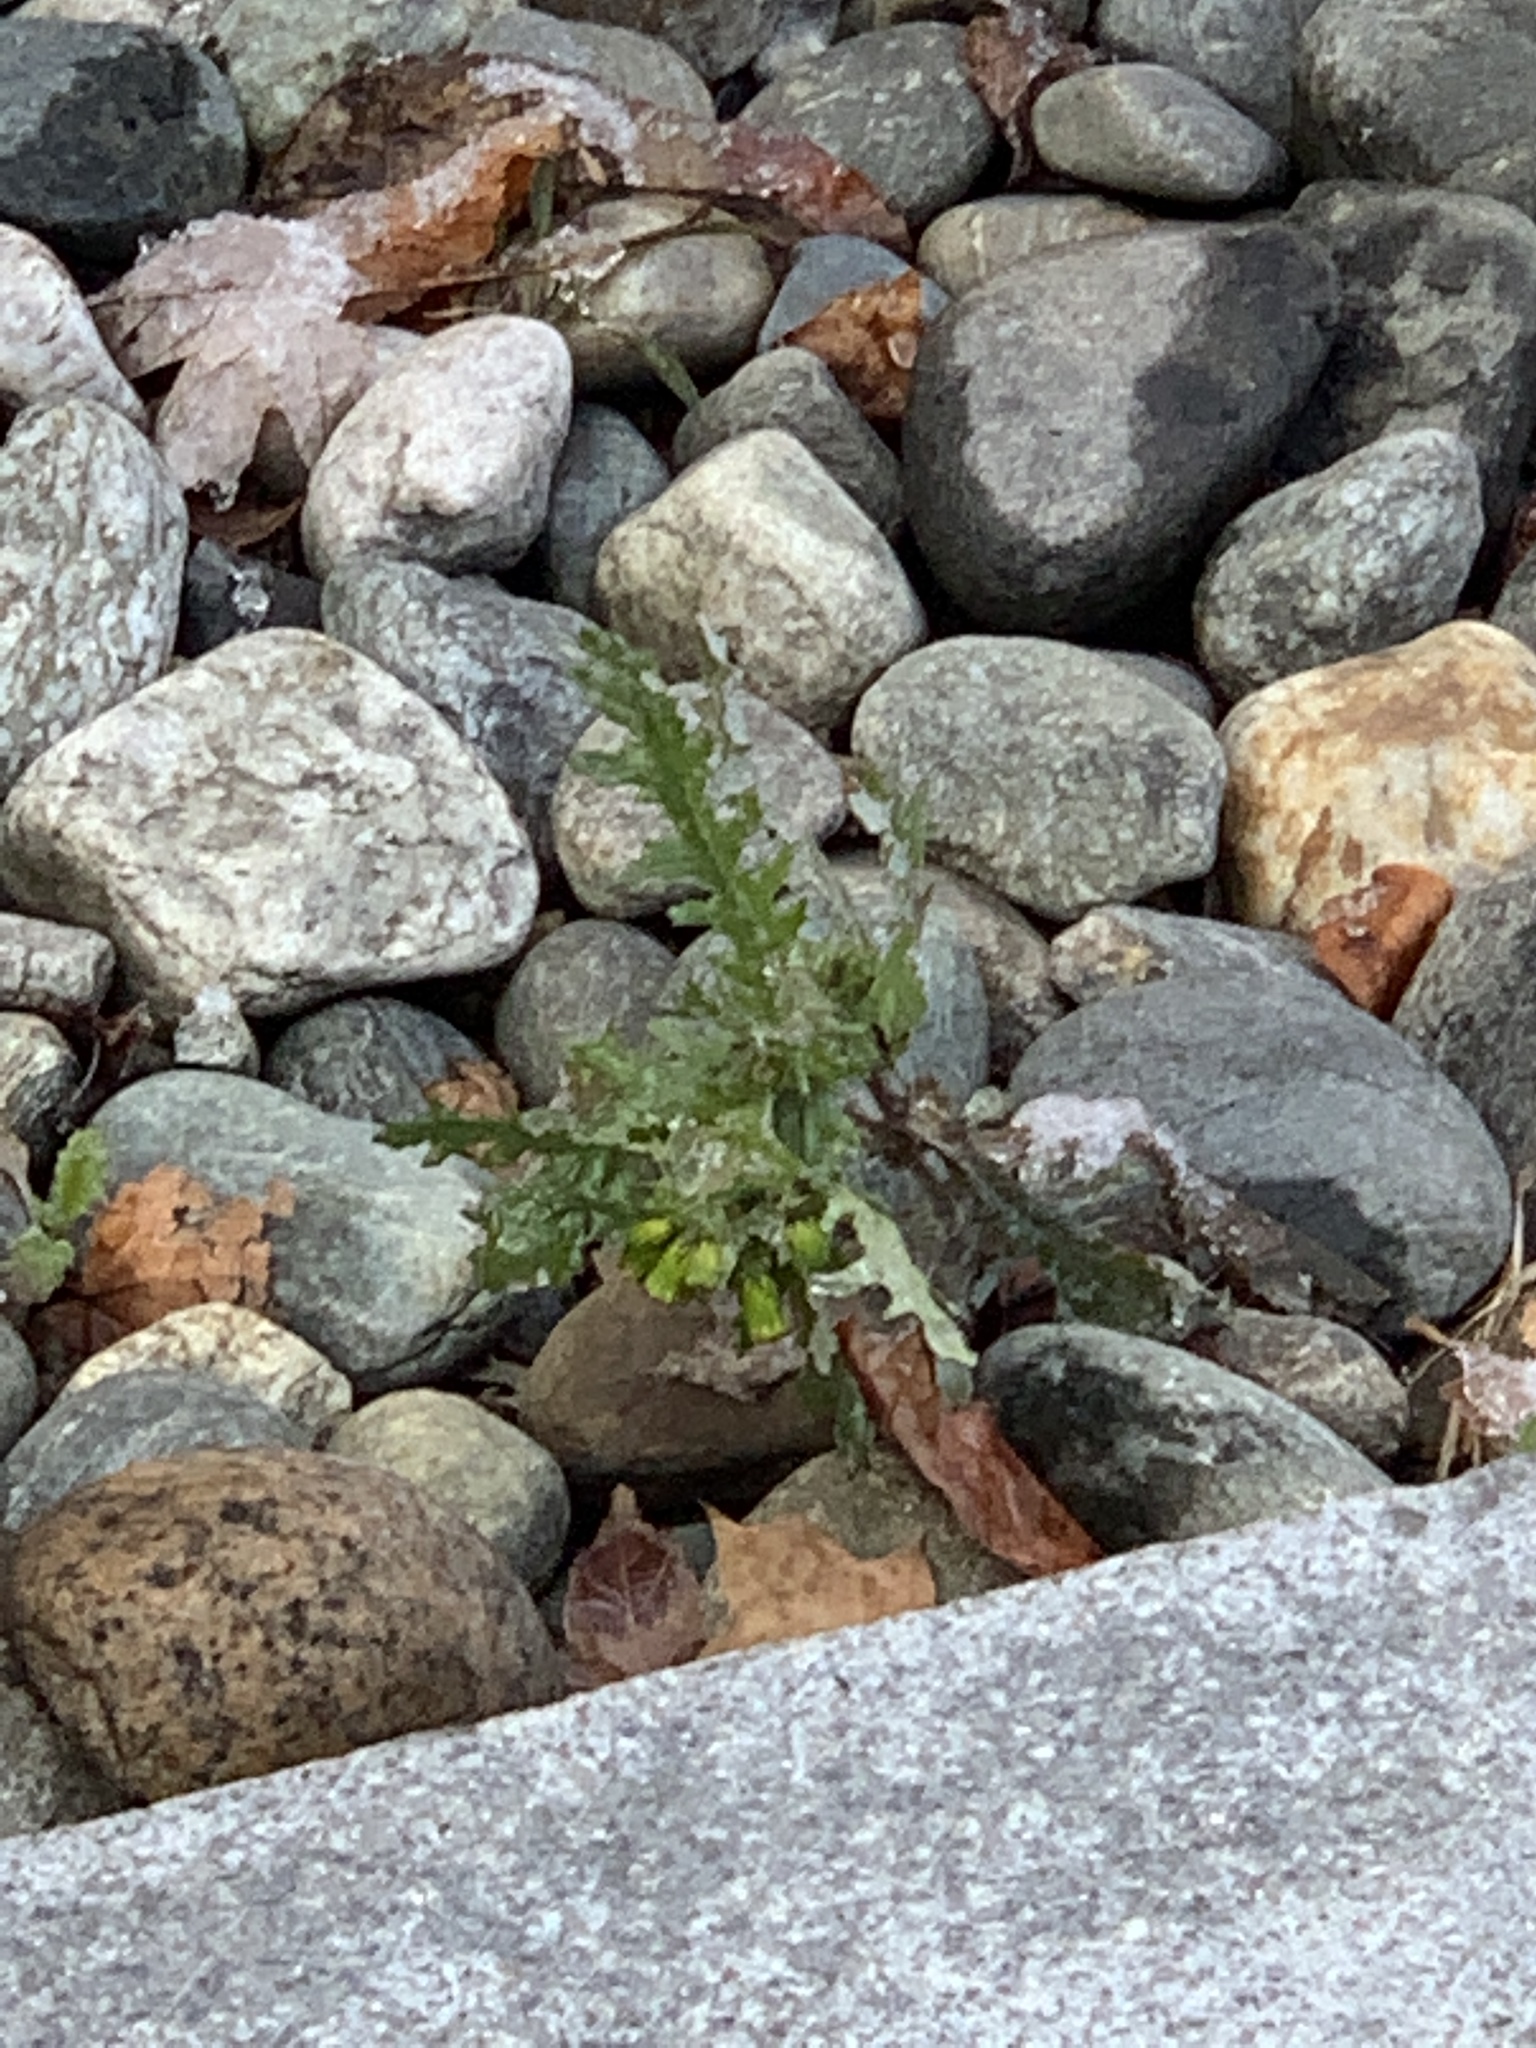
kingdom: Plantae
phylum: Tracheophyta
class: Magnoliopsida
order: Asterales
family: Asteraceae
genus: Senecio
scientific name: Senecio vulgaris
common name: Old-man-in-the-spring
